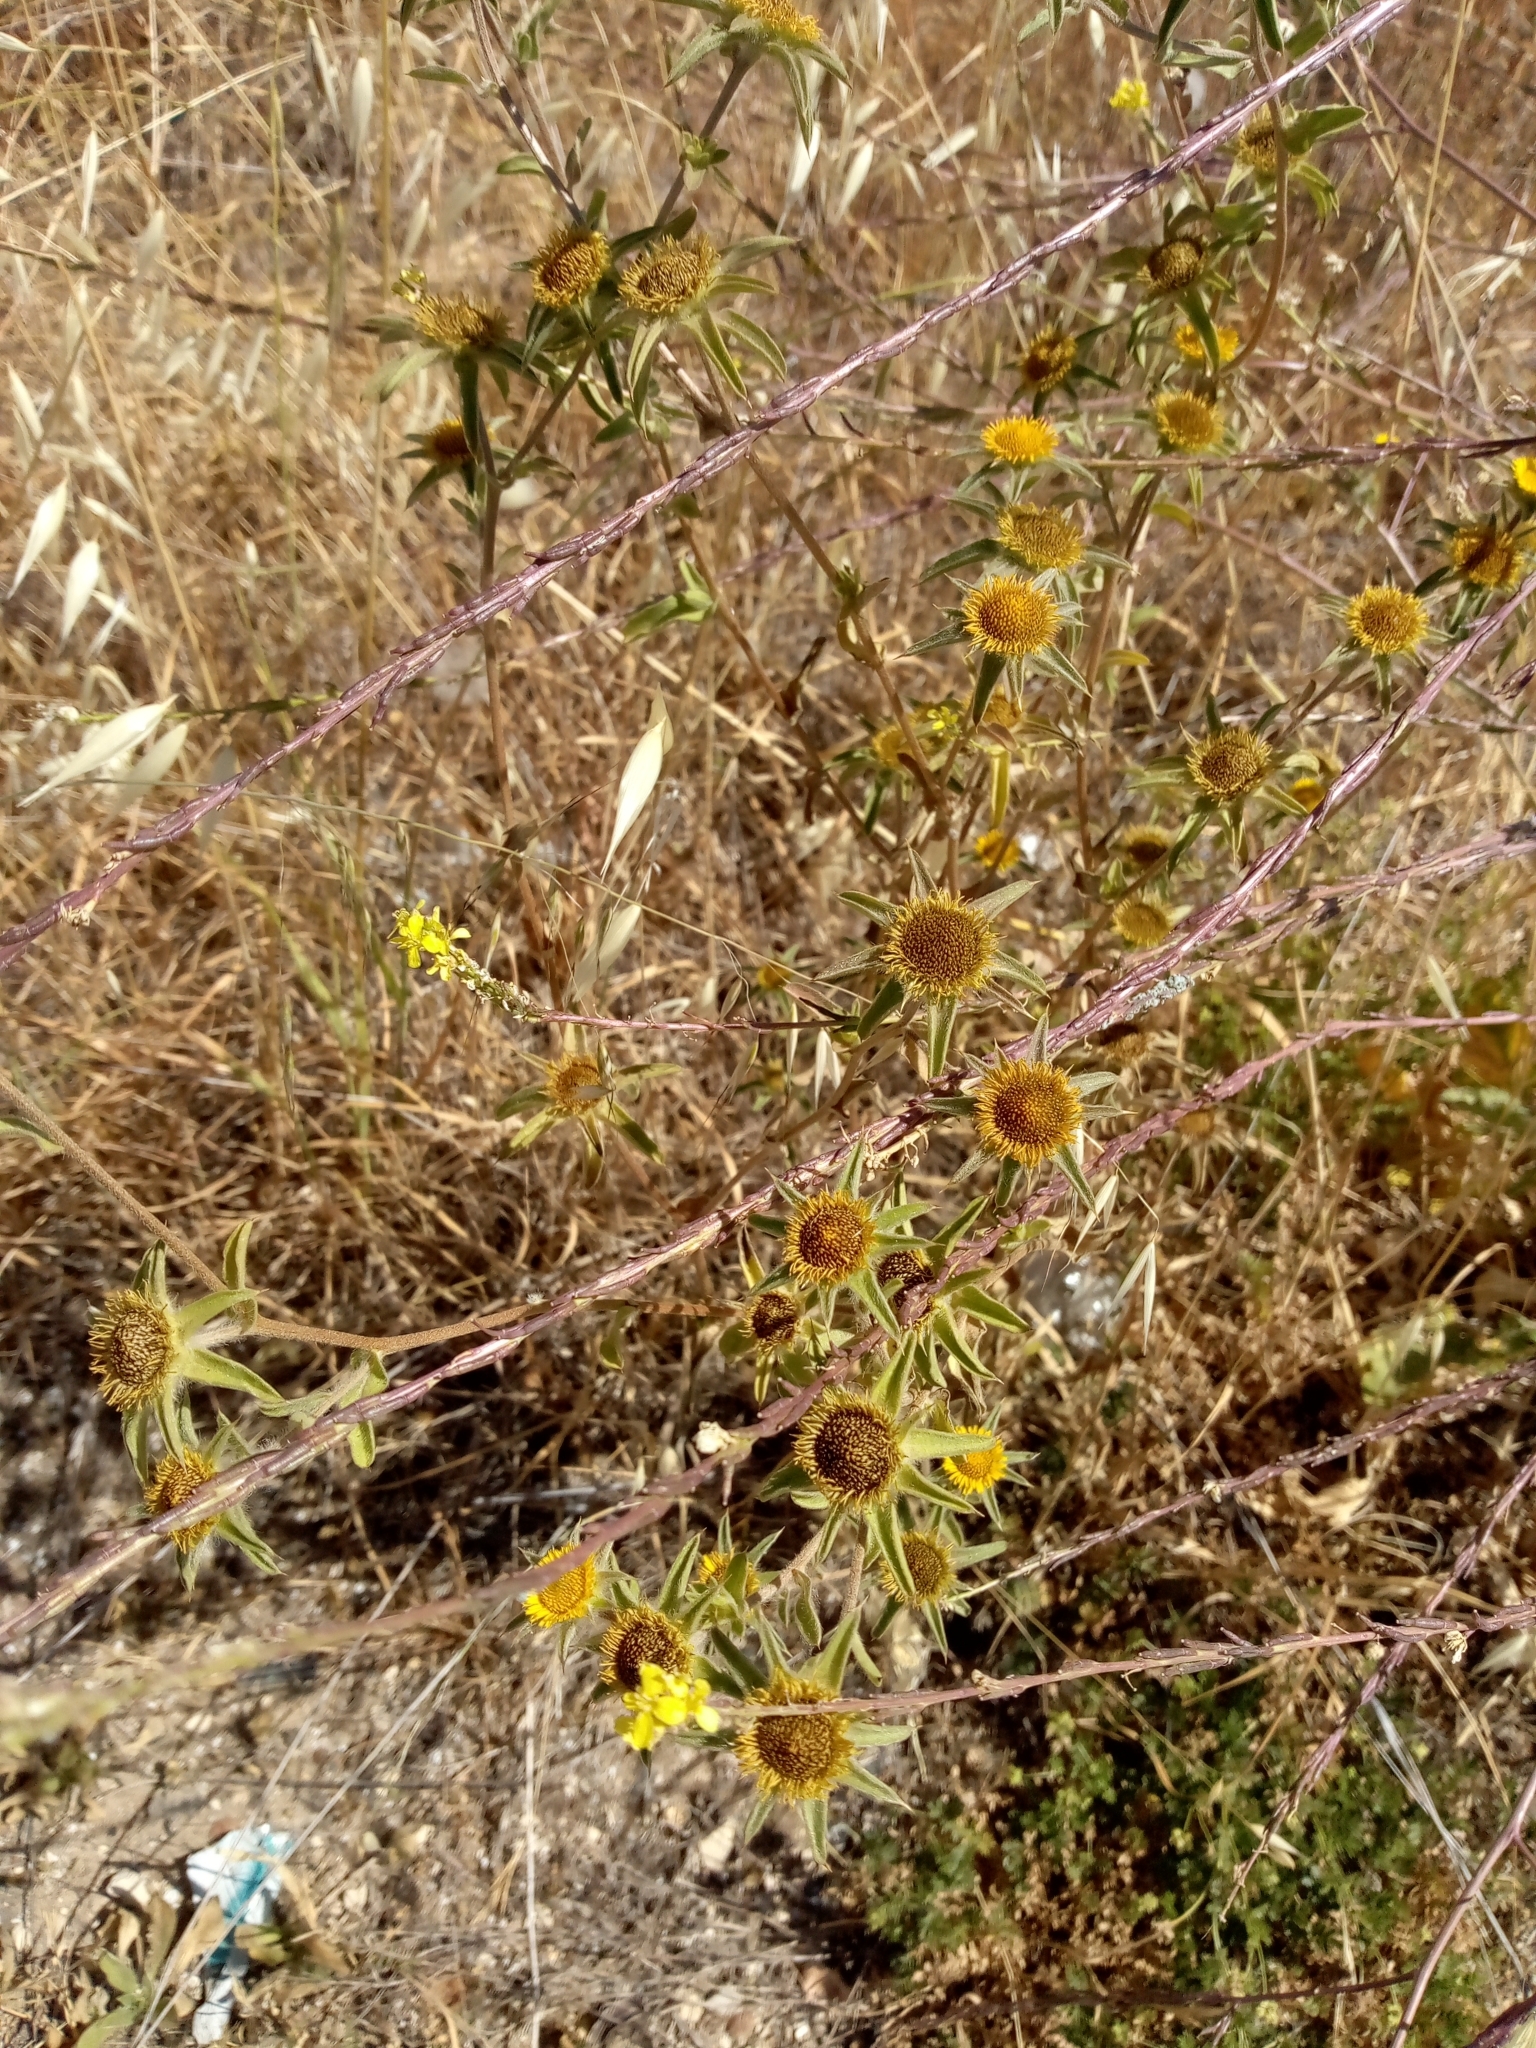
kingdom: Plantae
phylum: Tracheophyta
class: Magnoliopsida
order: Asterales
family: Asteraceae
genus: Pallenis
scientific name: Pallenis spinosa
